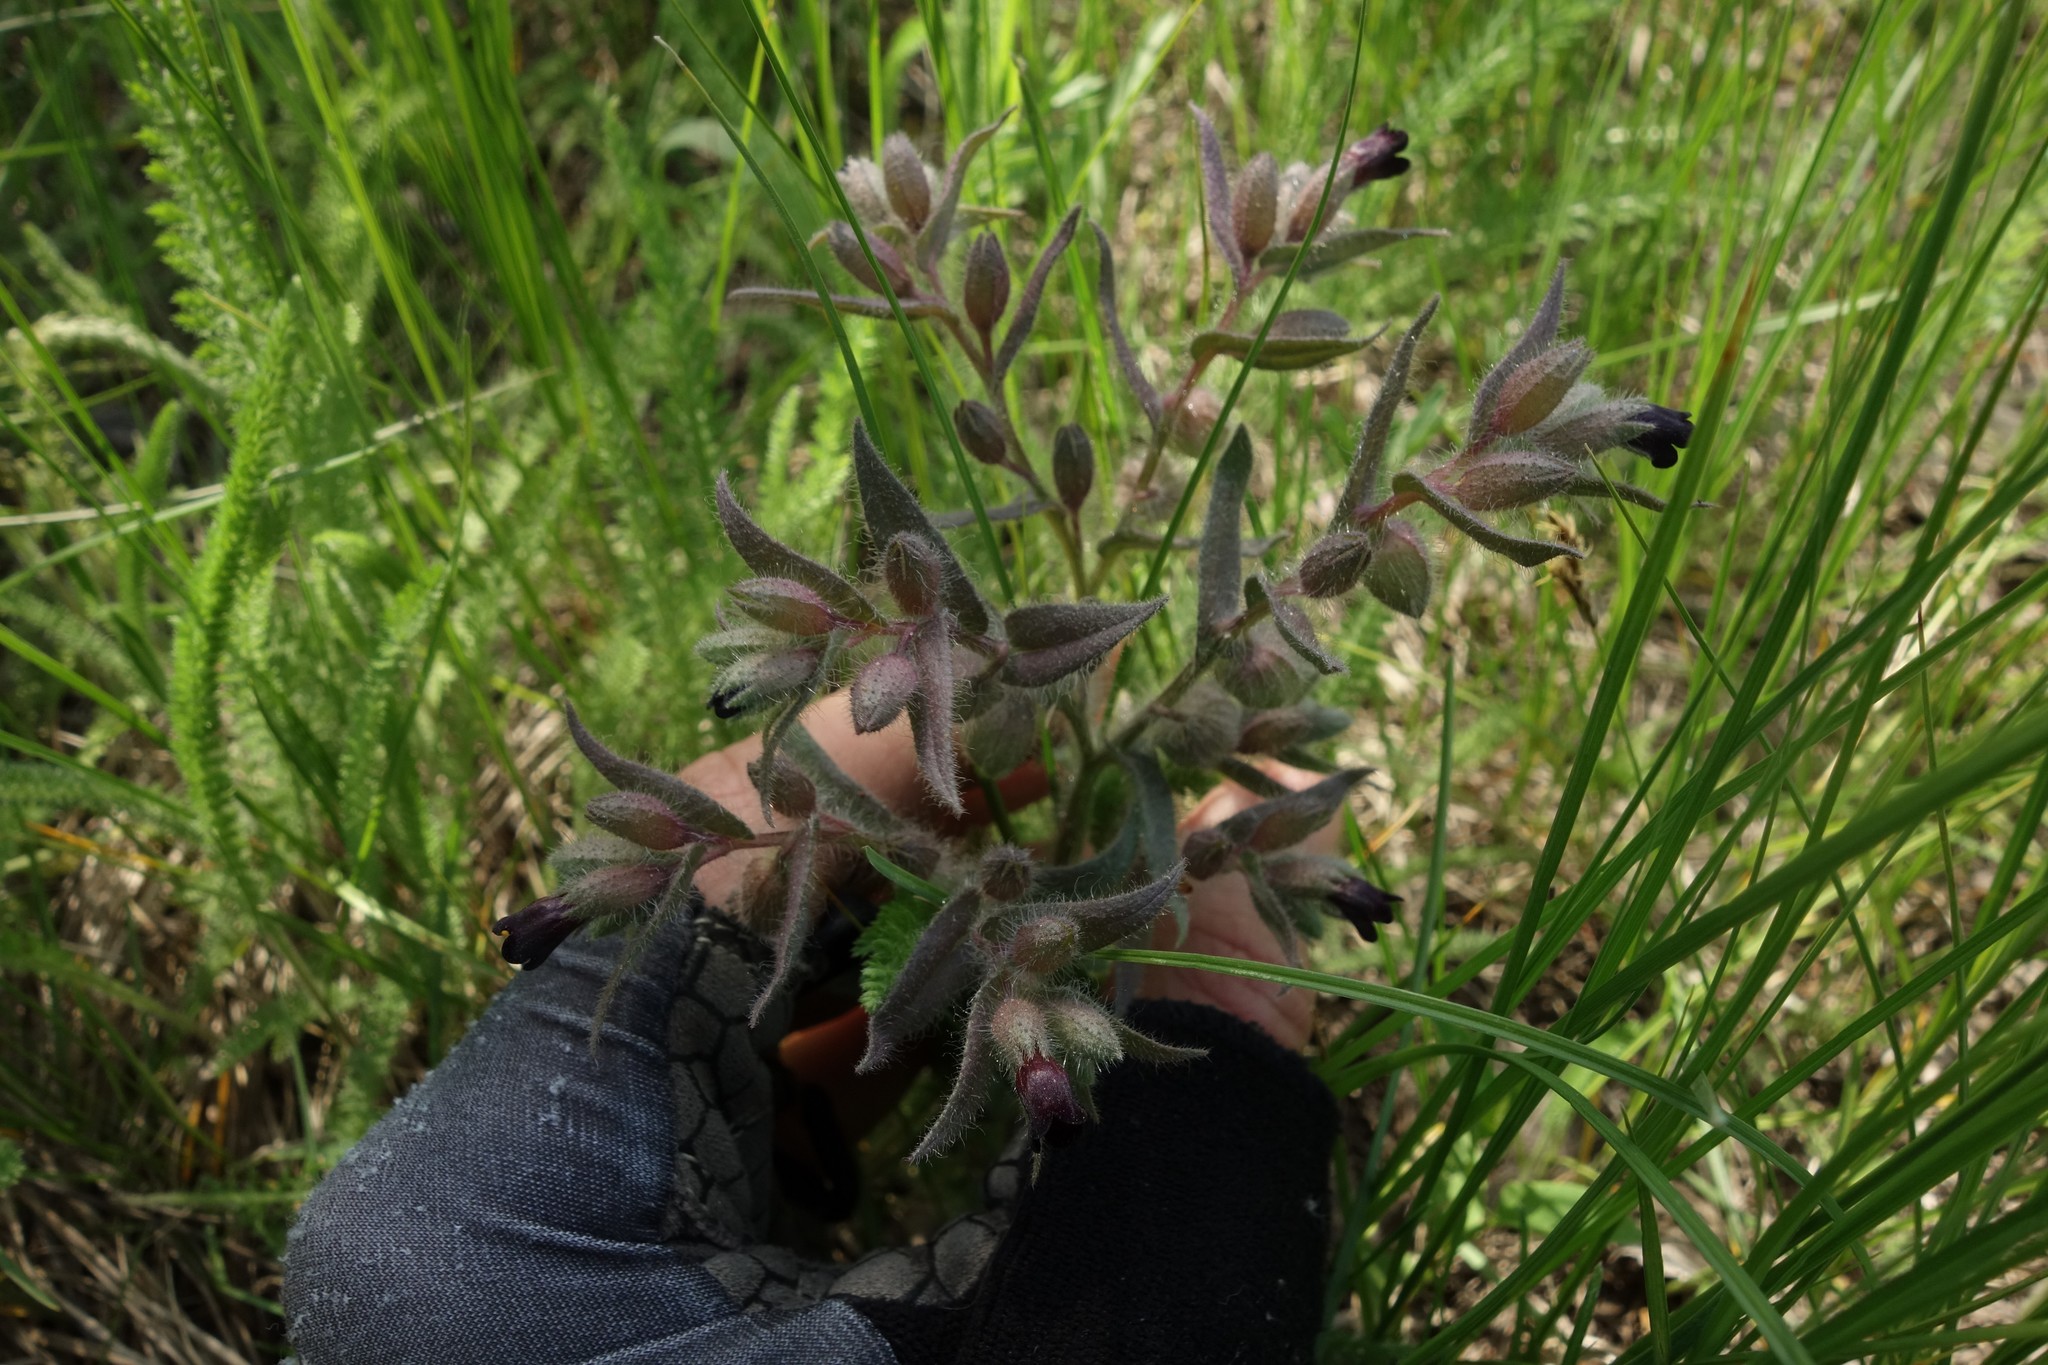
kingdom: Plantae
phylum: Tracheophyta
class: Magnoliopsida
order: Boraginales
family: Boraginaceae
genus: Nonea
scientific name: Nonea pulla
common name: Brown nonea
